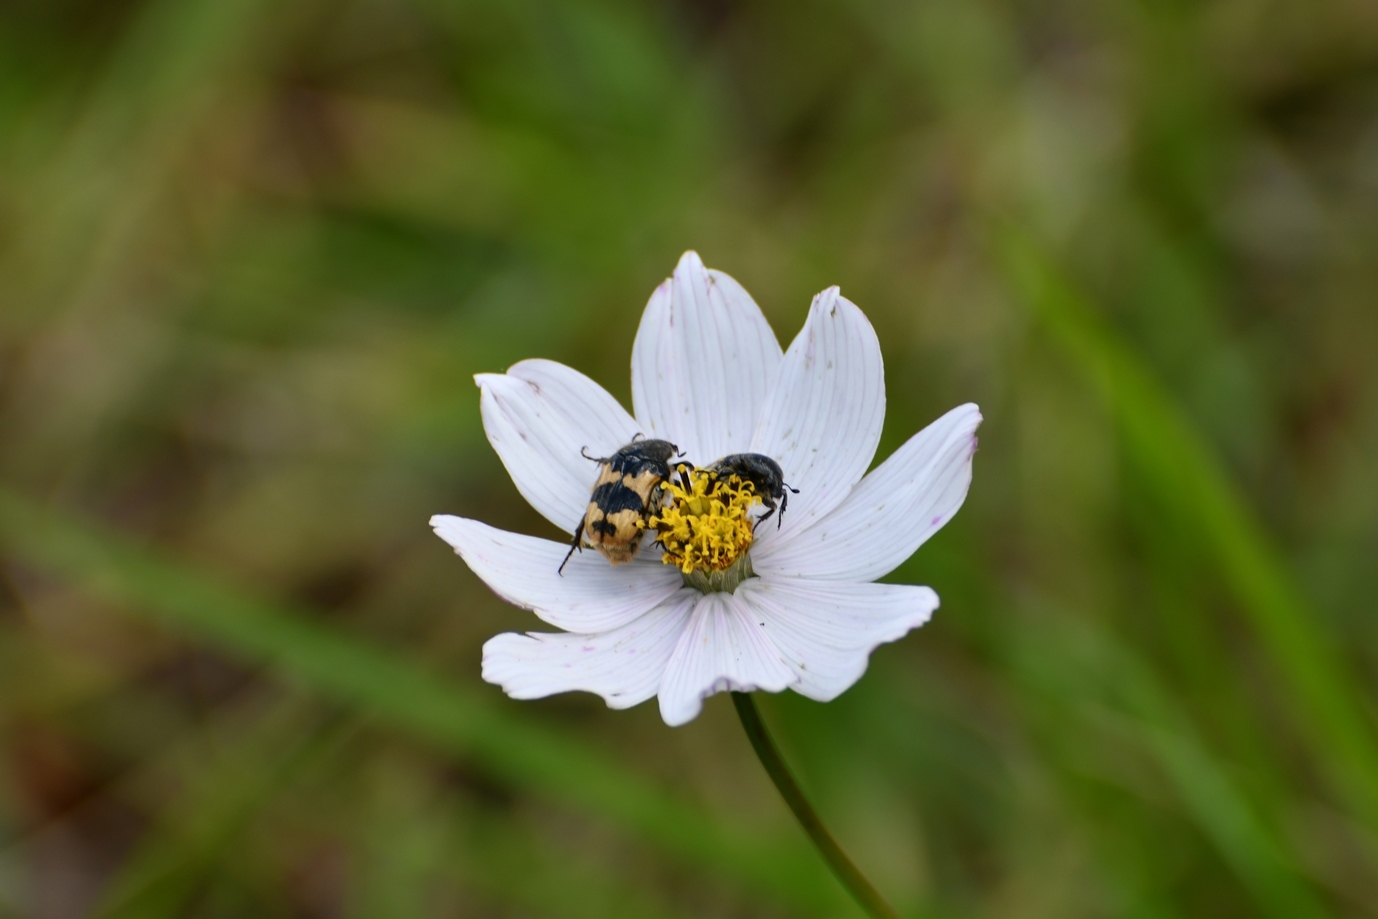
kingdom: Animalia
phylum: Arthropoda
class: Insecta
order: Coleoptera
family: Scarabaeidae
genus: Euphoria
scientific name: Euphoria basalis
